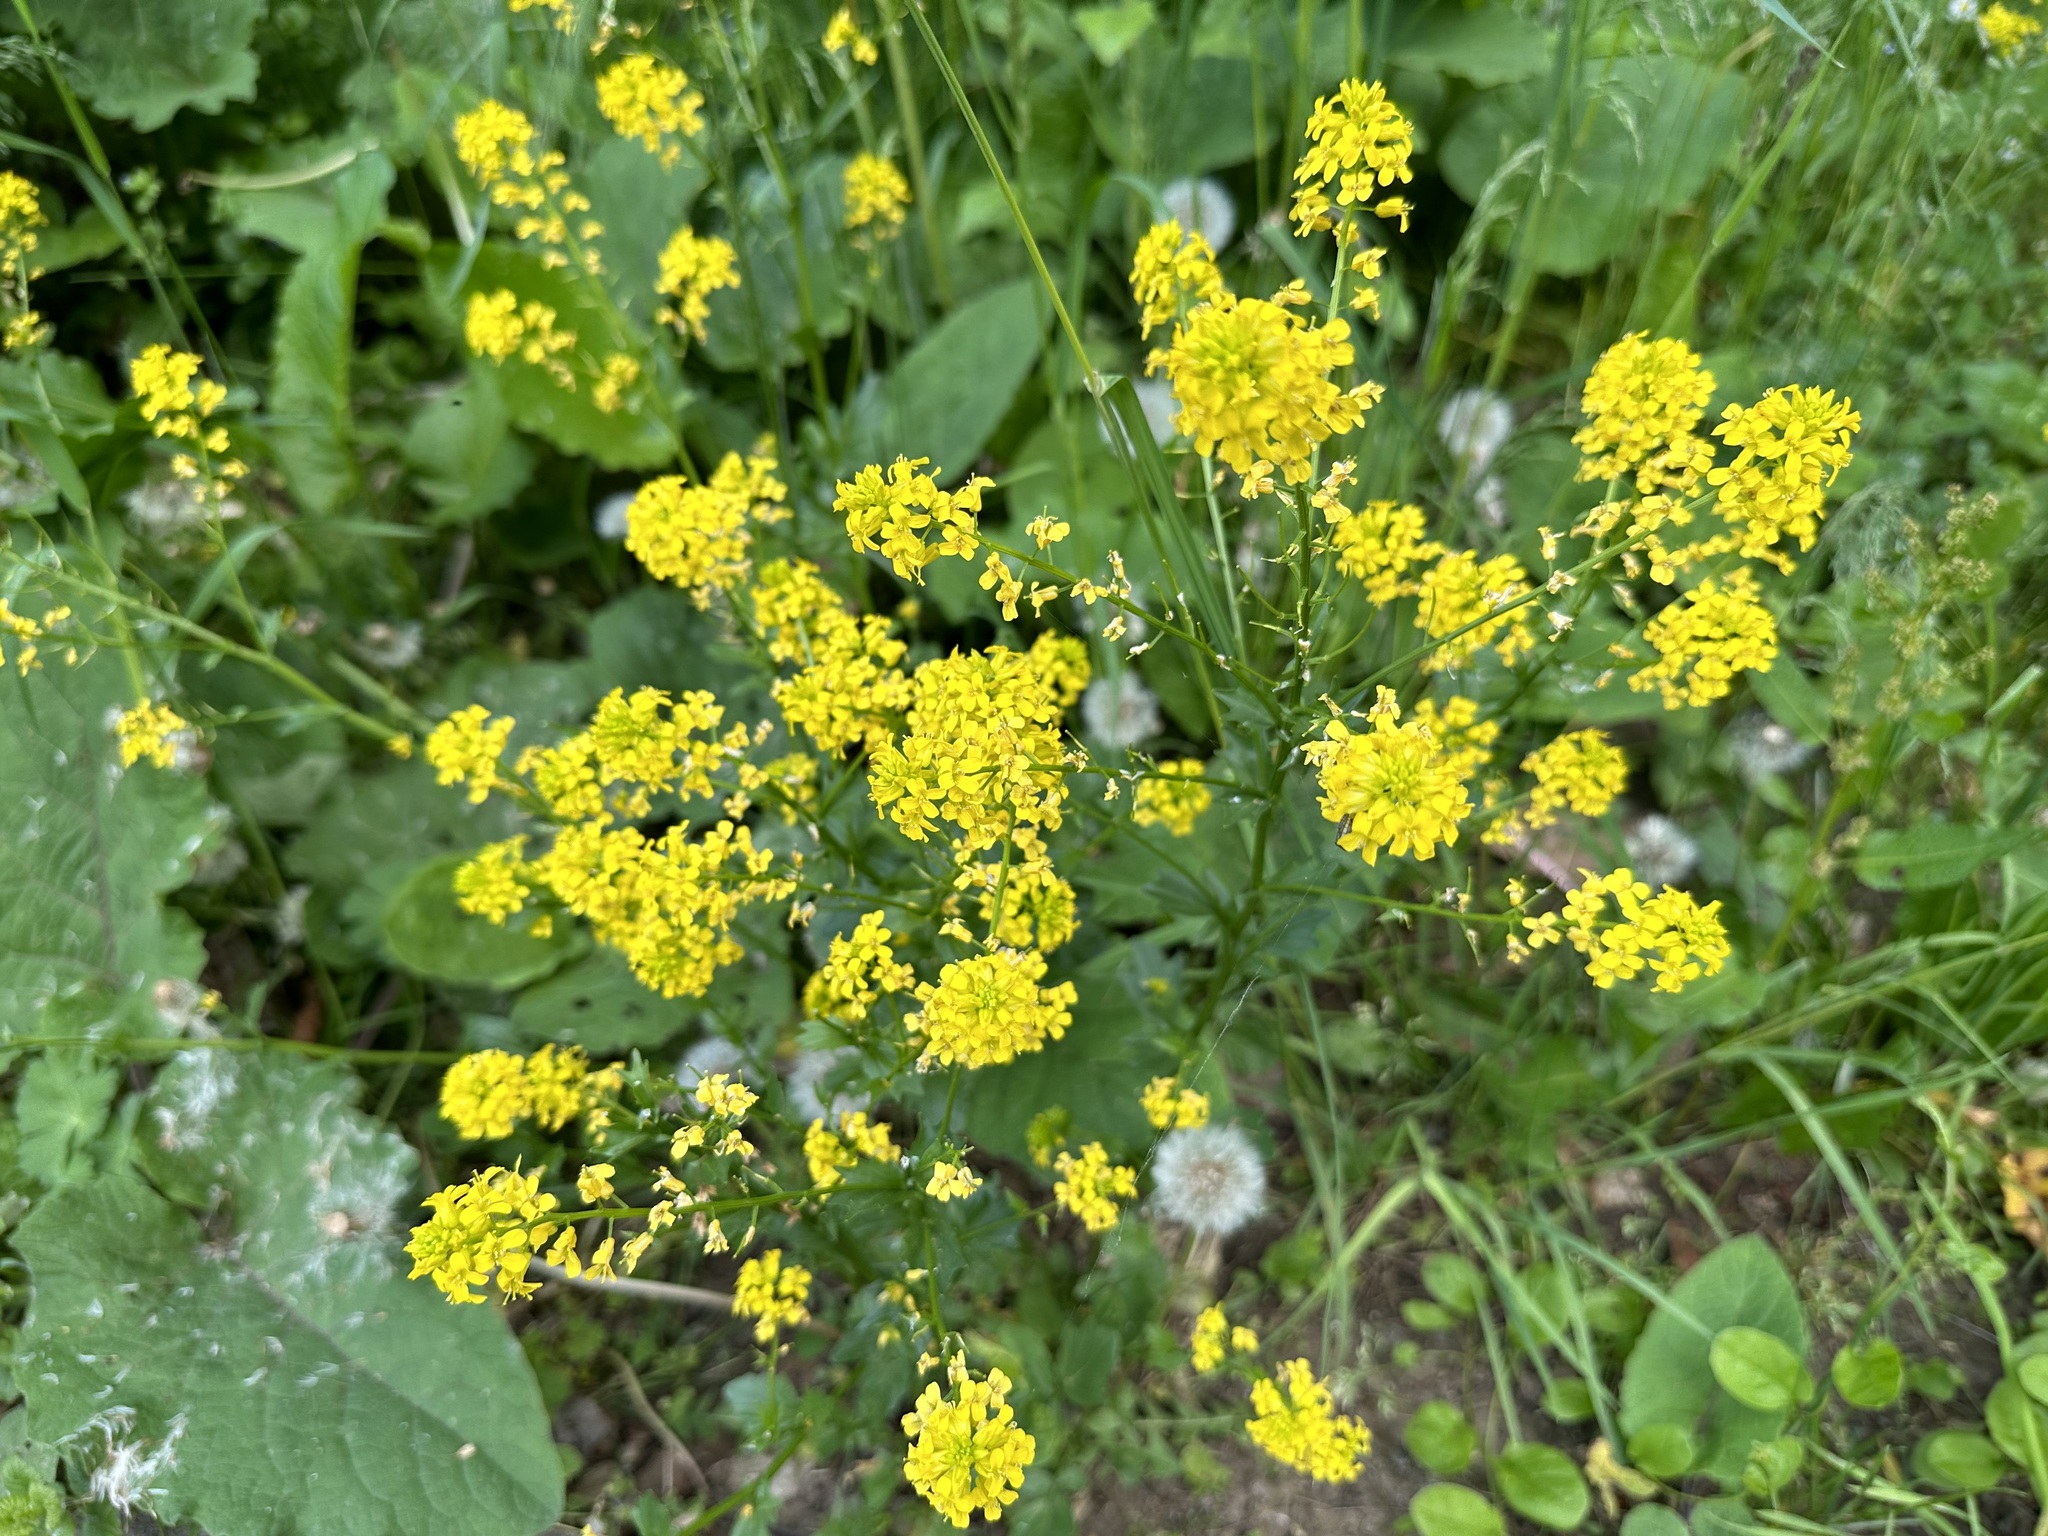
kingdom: Plantae
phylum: Tracheophyta
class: Magnoliopsida
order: Brassicales
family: Brassicaceae
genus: Barbarea
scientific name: Barbarea vulgaris
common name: Cressy-greens
